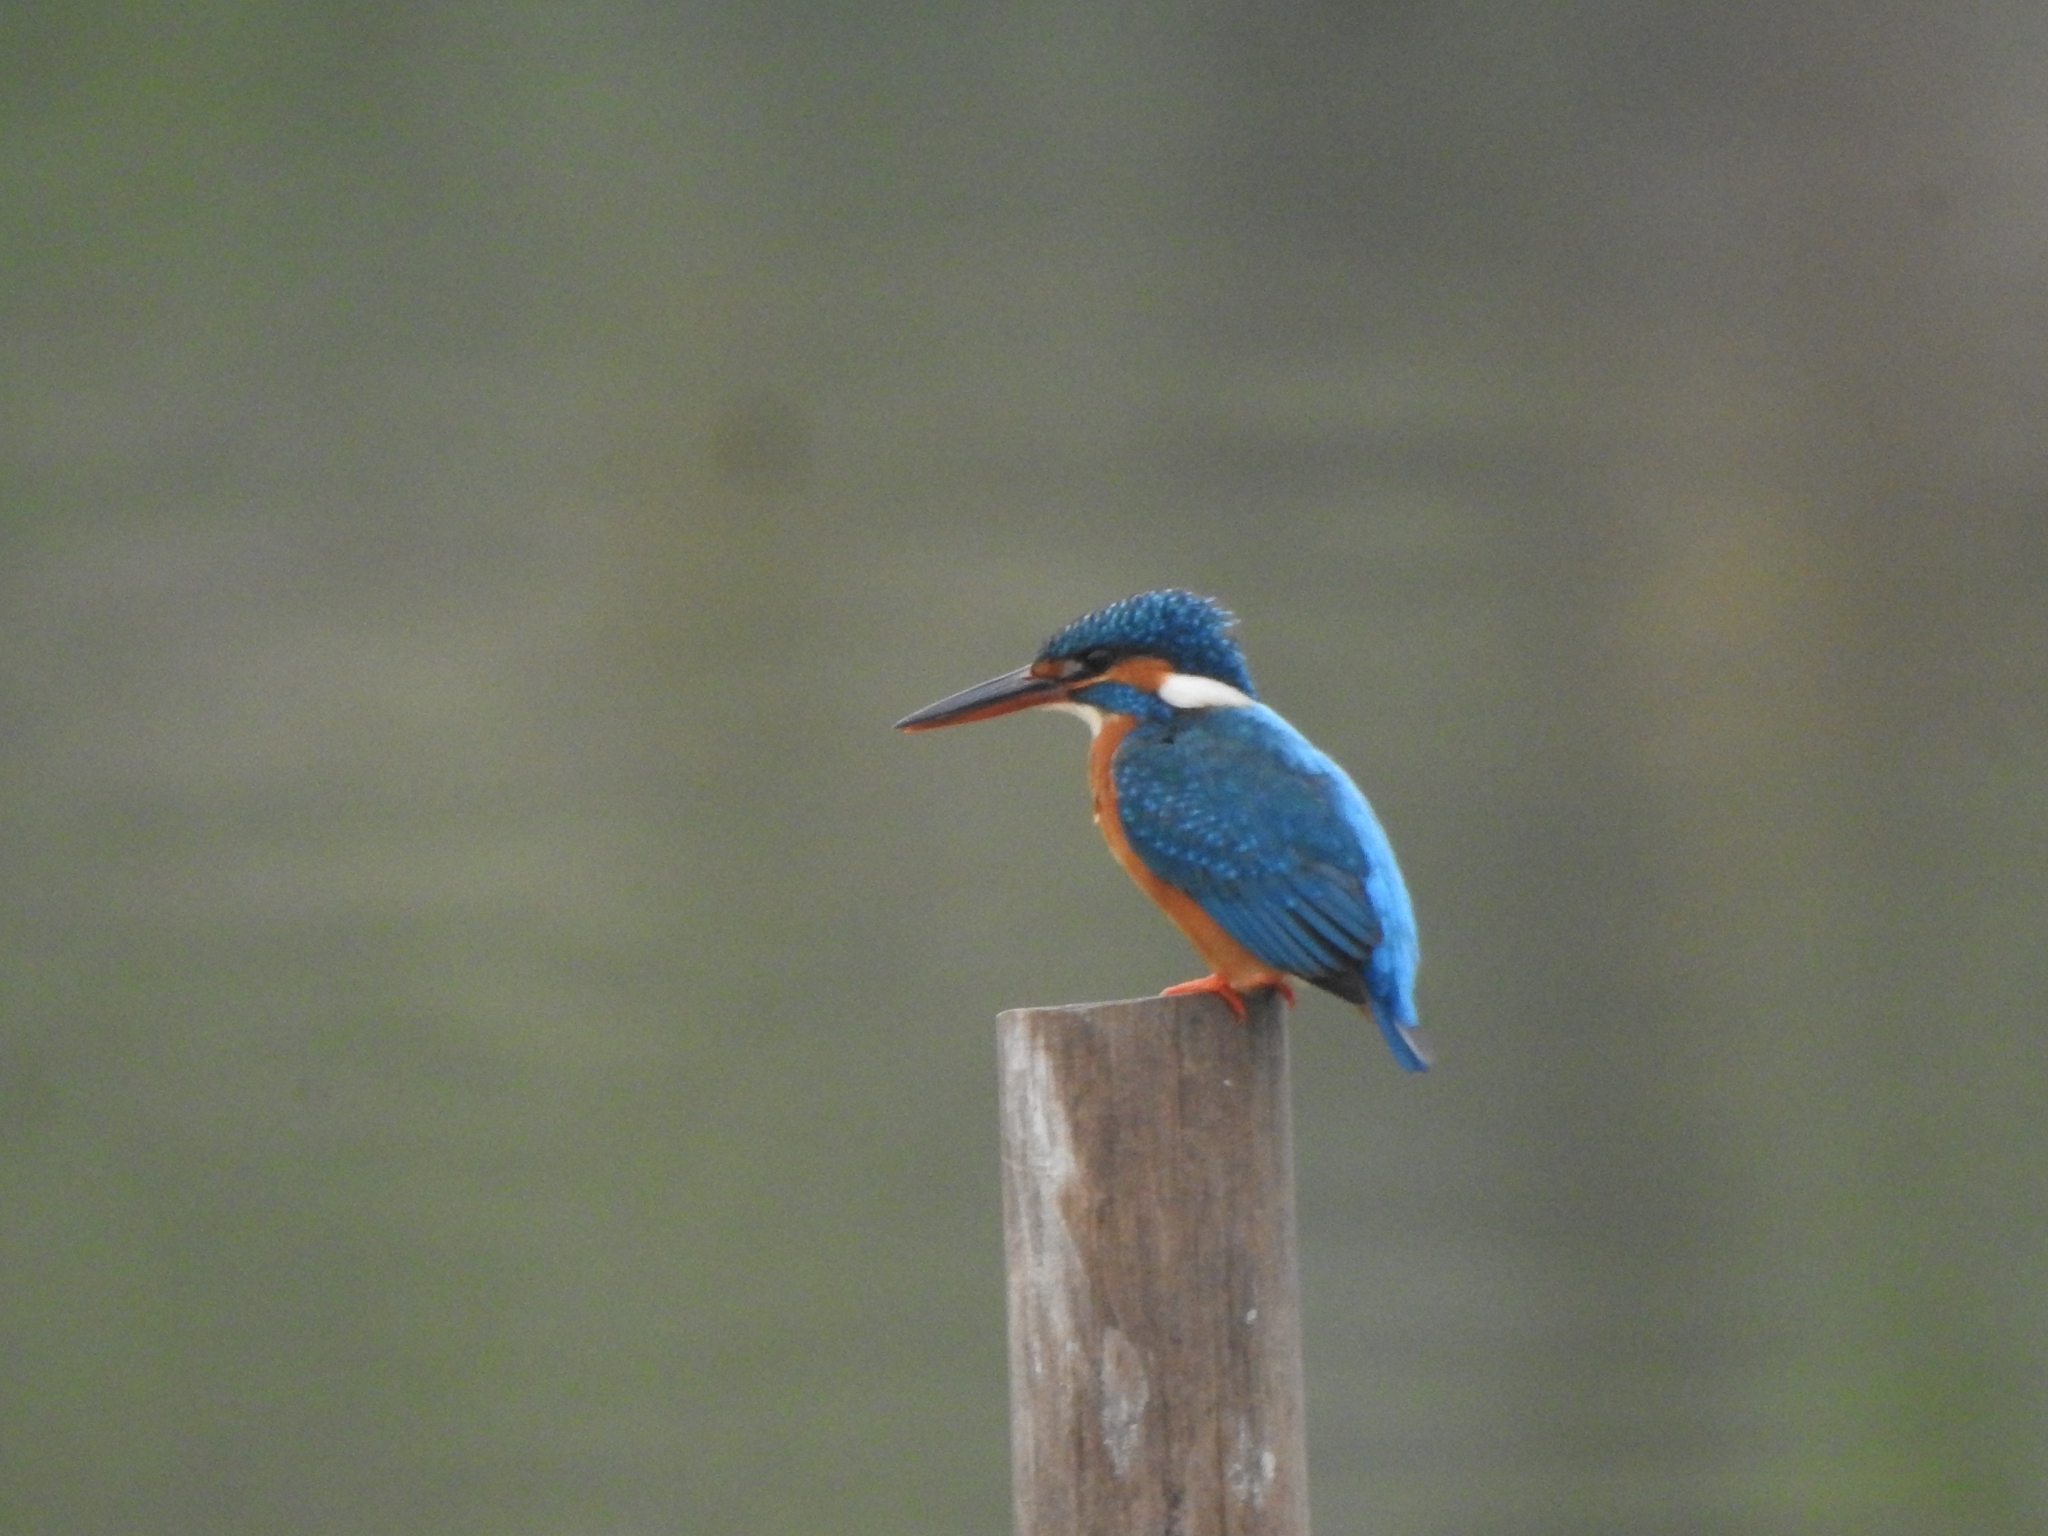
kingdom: Animalia
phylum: Chordata
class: Aves
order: Coraciiformes
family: Alcedinidae
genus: Alcedo
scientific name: Alcedo atthis
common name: Common kingfisher
